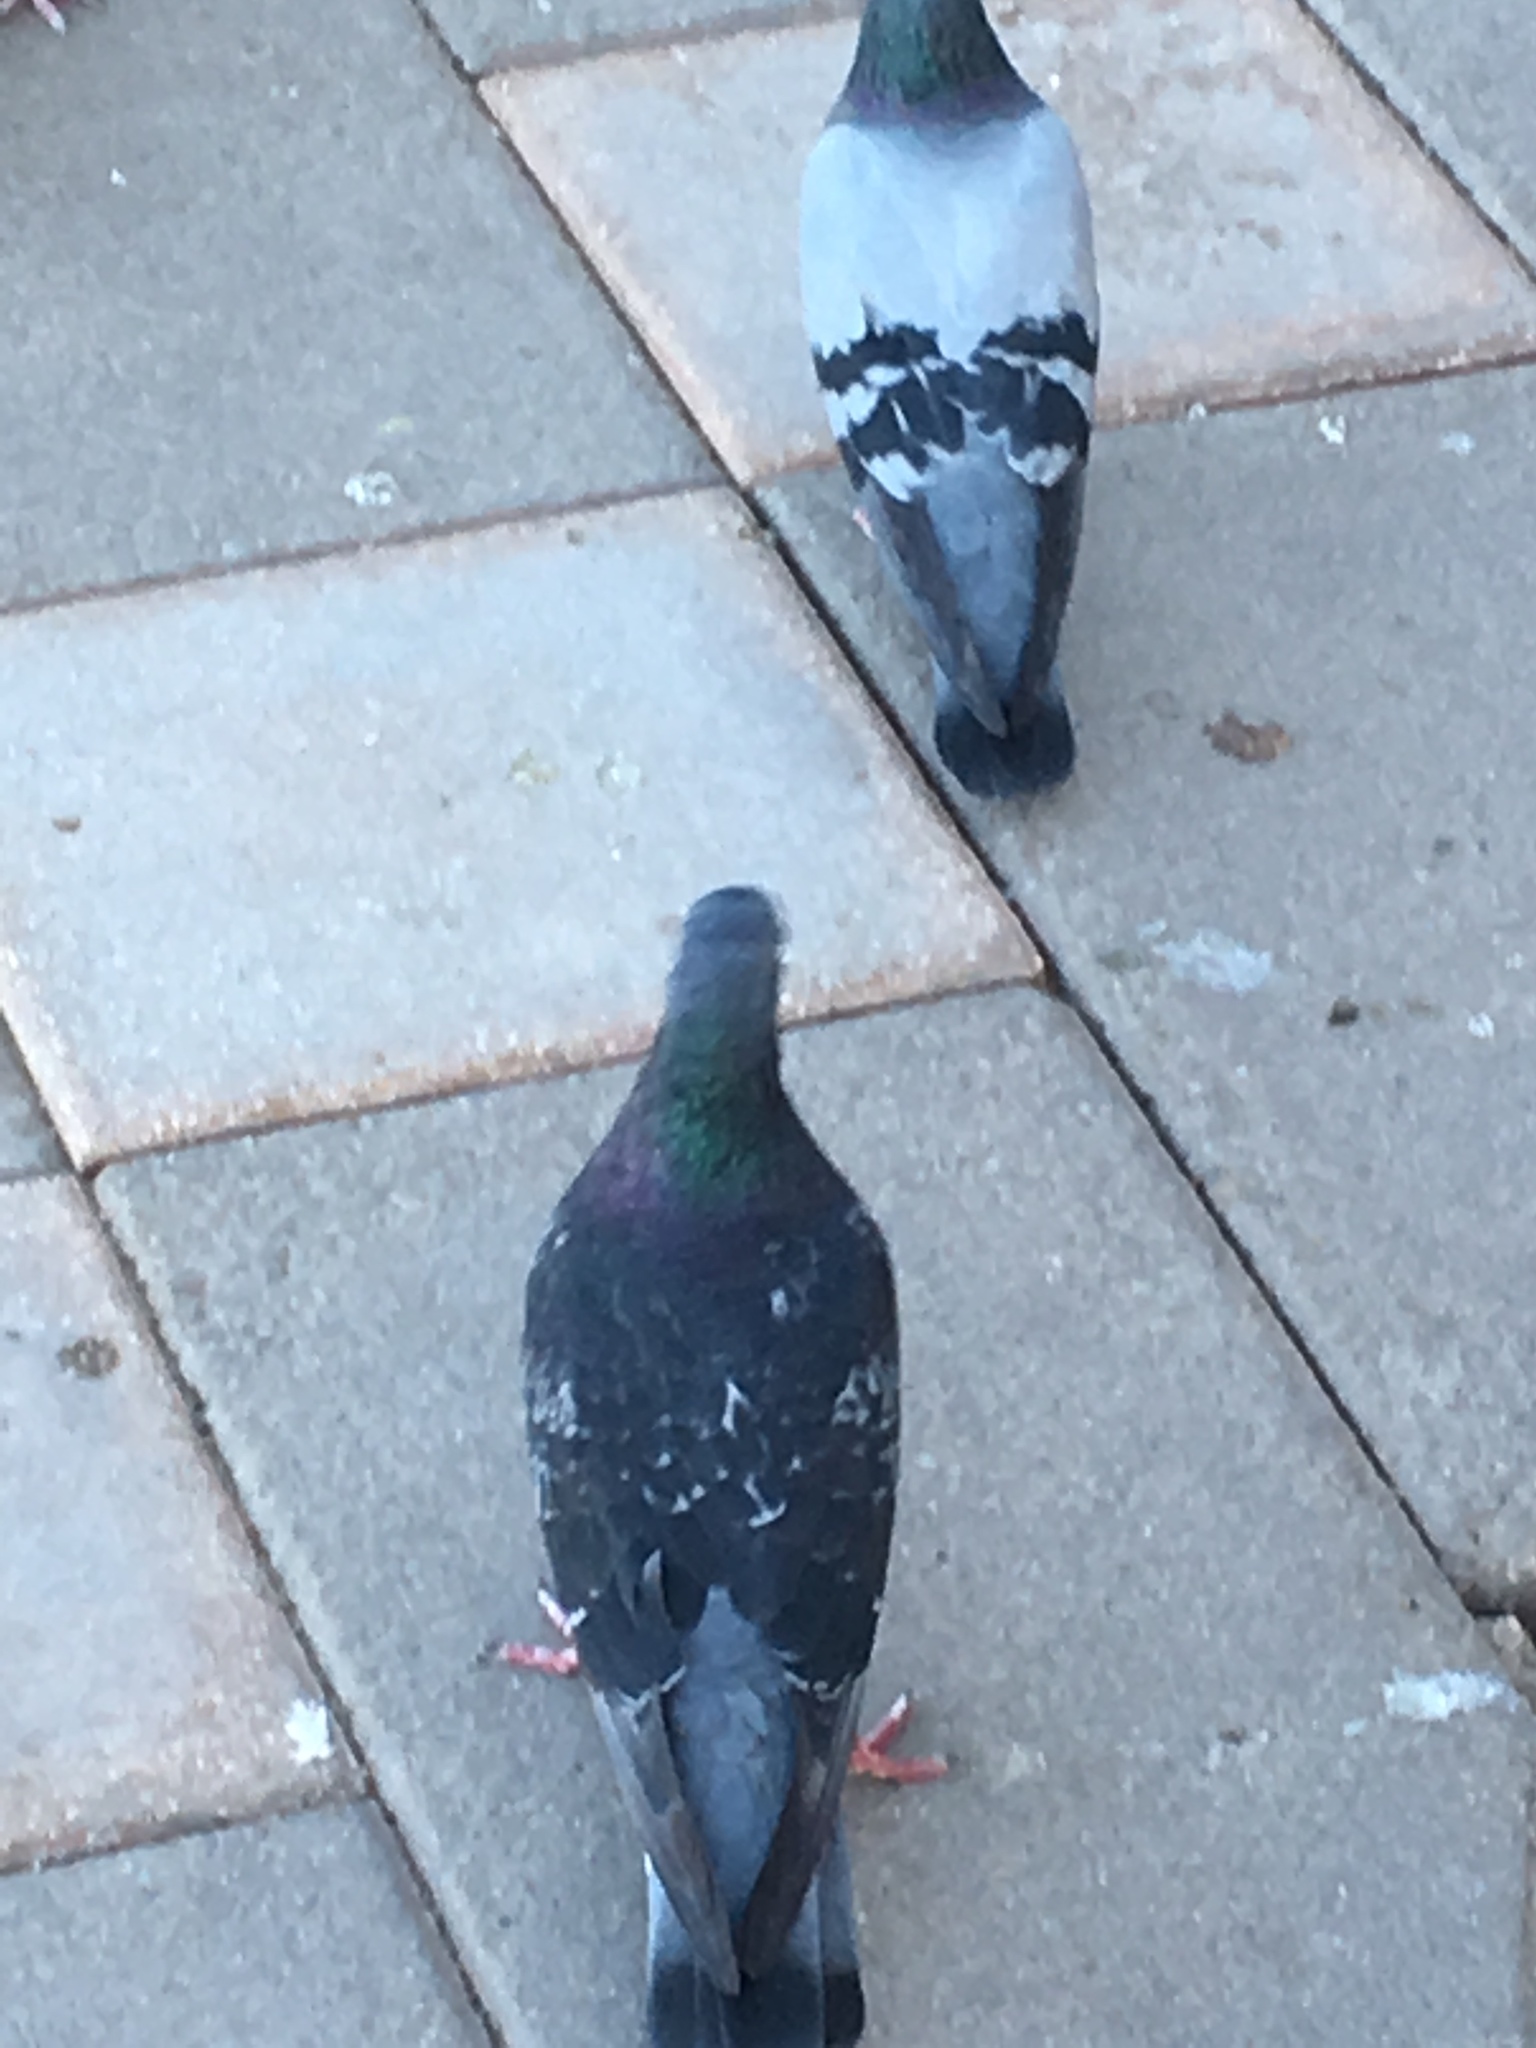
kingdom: Animalia
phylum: Chordata
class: Aves
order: Columbiformes
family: Columbidae
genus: Columba
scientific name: Columba livia
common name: Rock pigeon
